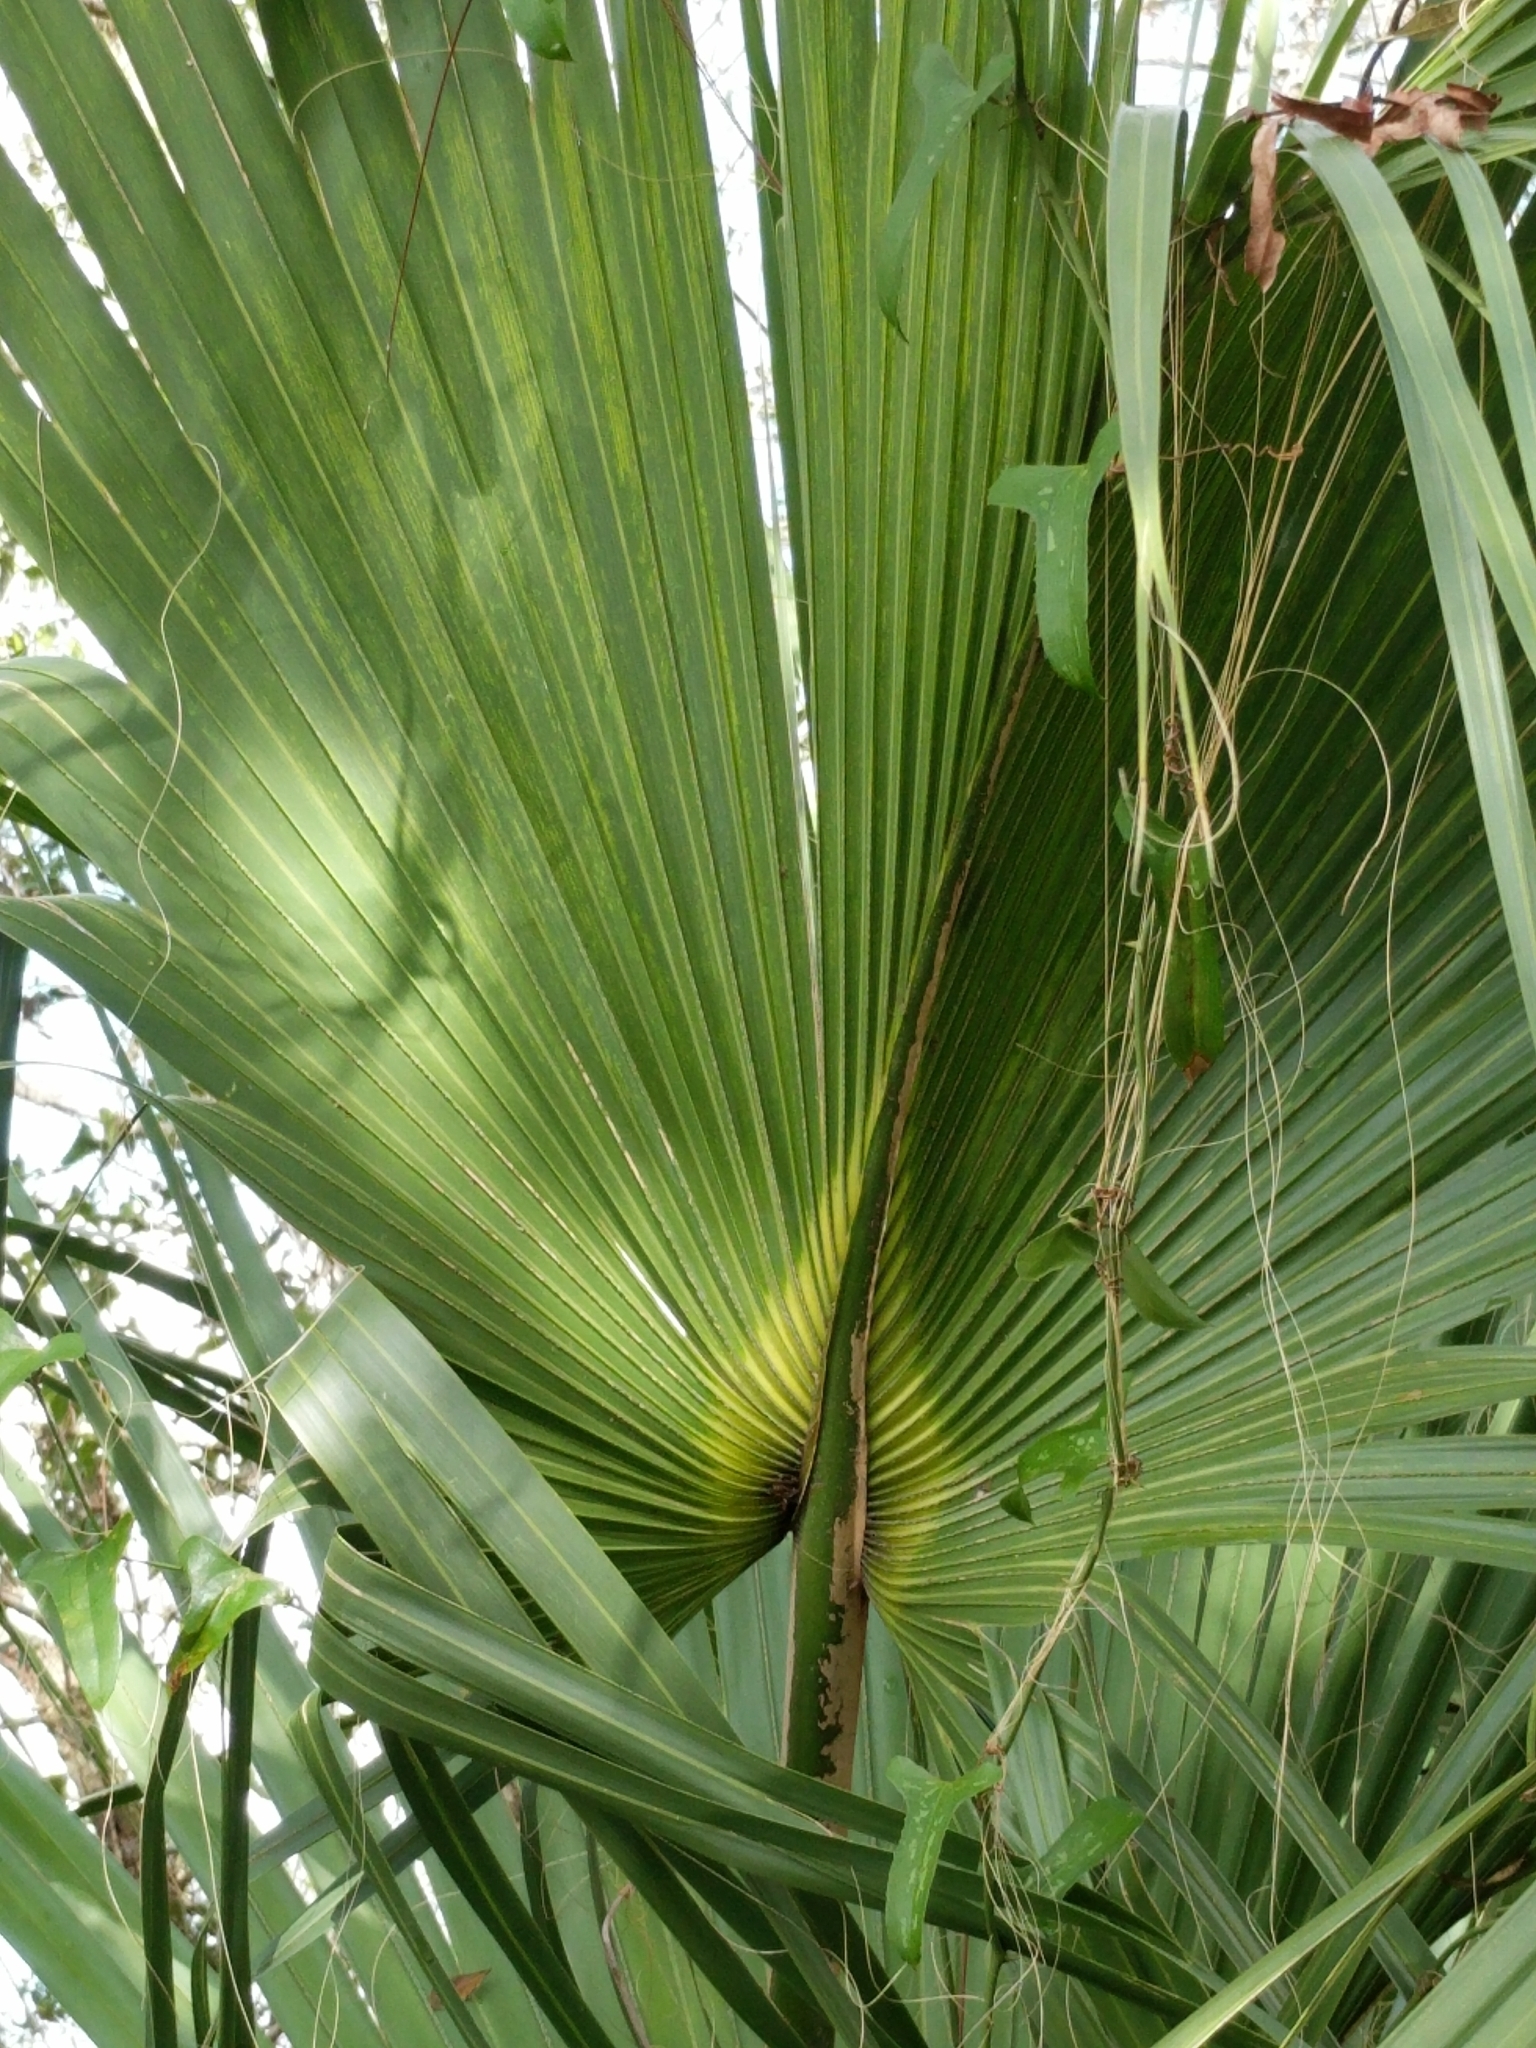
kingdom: Plantae
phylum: Tracheophyta
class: Liliopsida
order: Arecales
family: Arecaceae
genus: Sabal
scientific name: Sabal palmetto
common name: Blue palmetto
